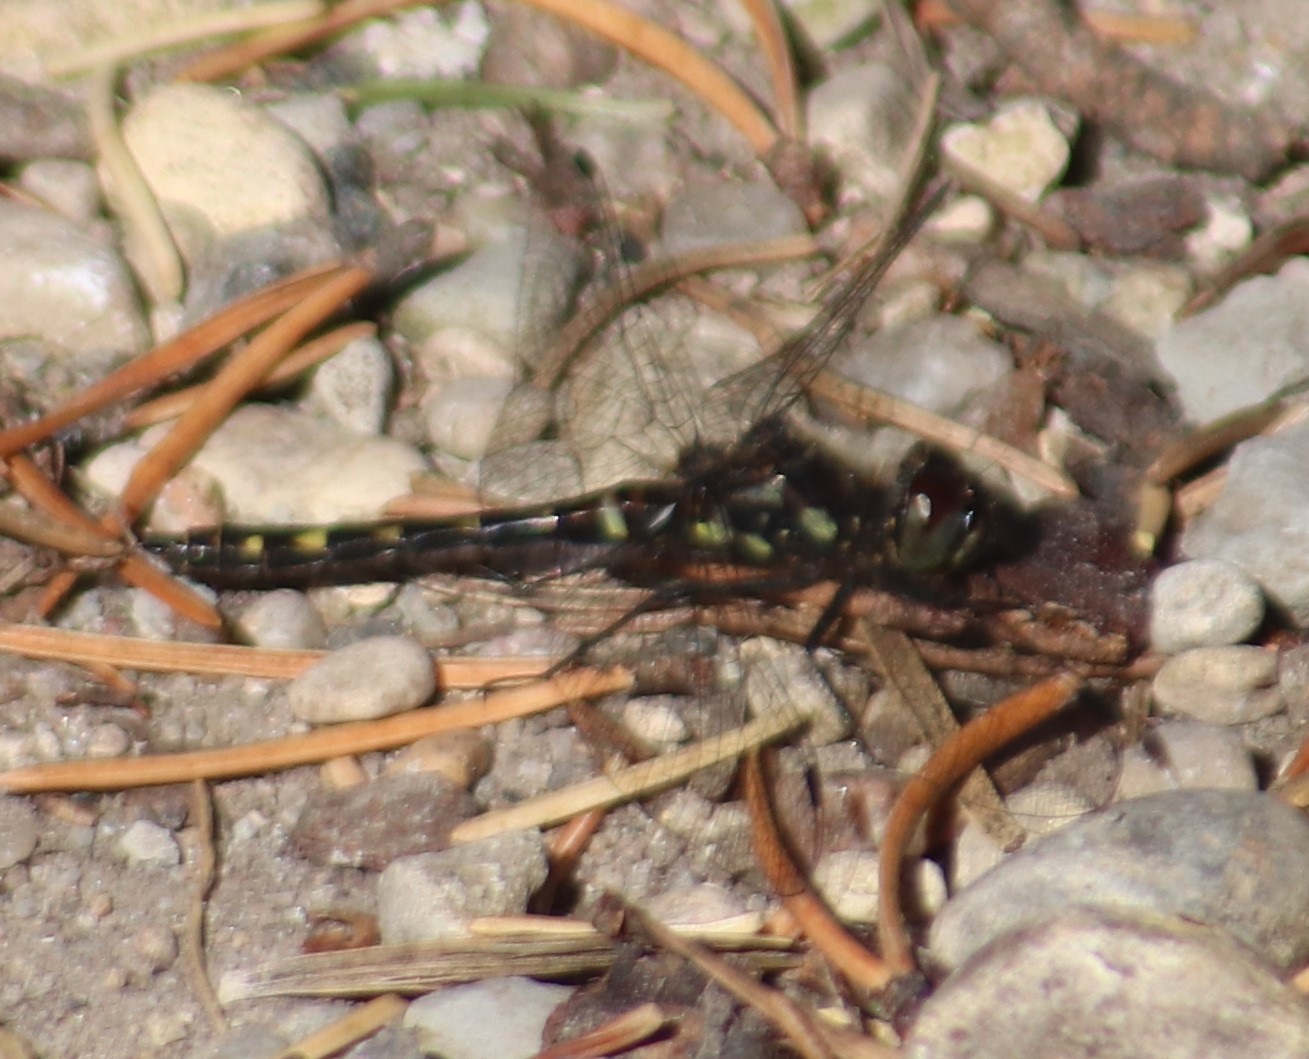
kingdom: Animalia
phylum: Arthropoda
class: Insecta
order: Odonata
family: Libellulidae
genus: Sympetrum
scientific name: Sympetrum danae
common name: Black darter
